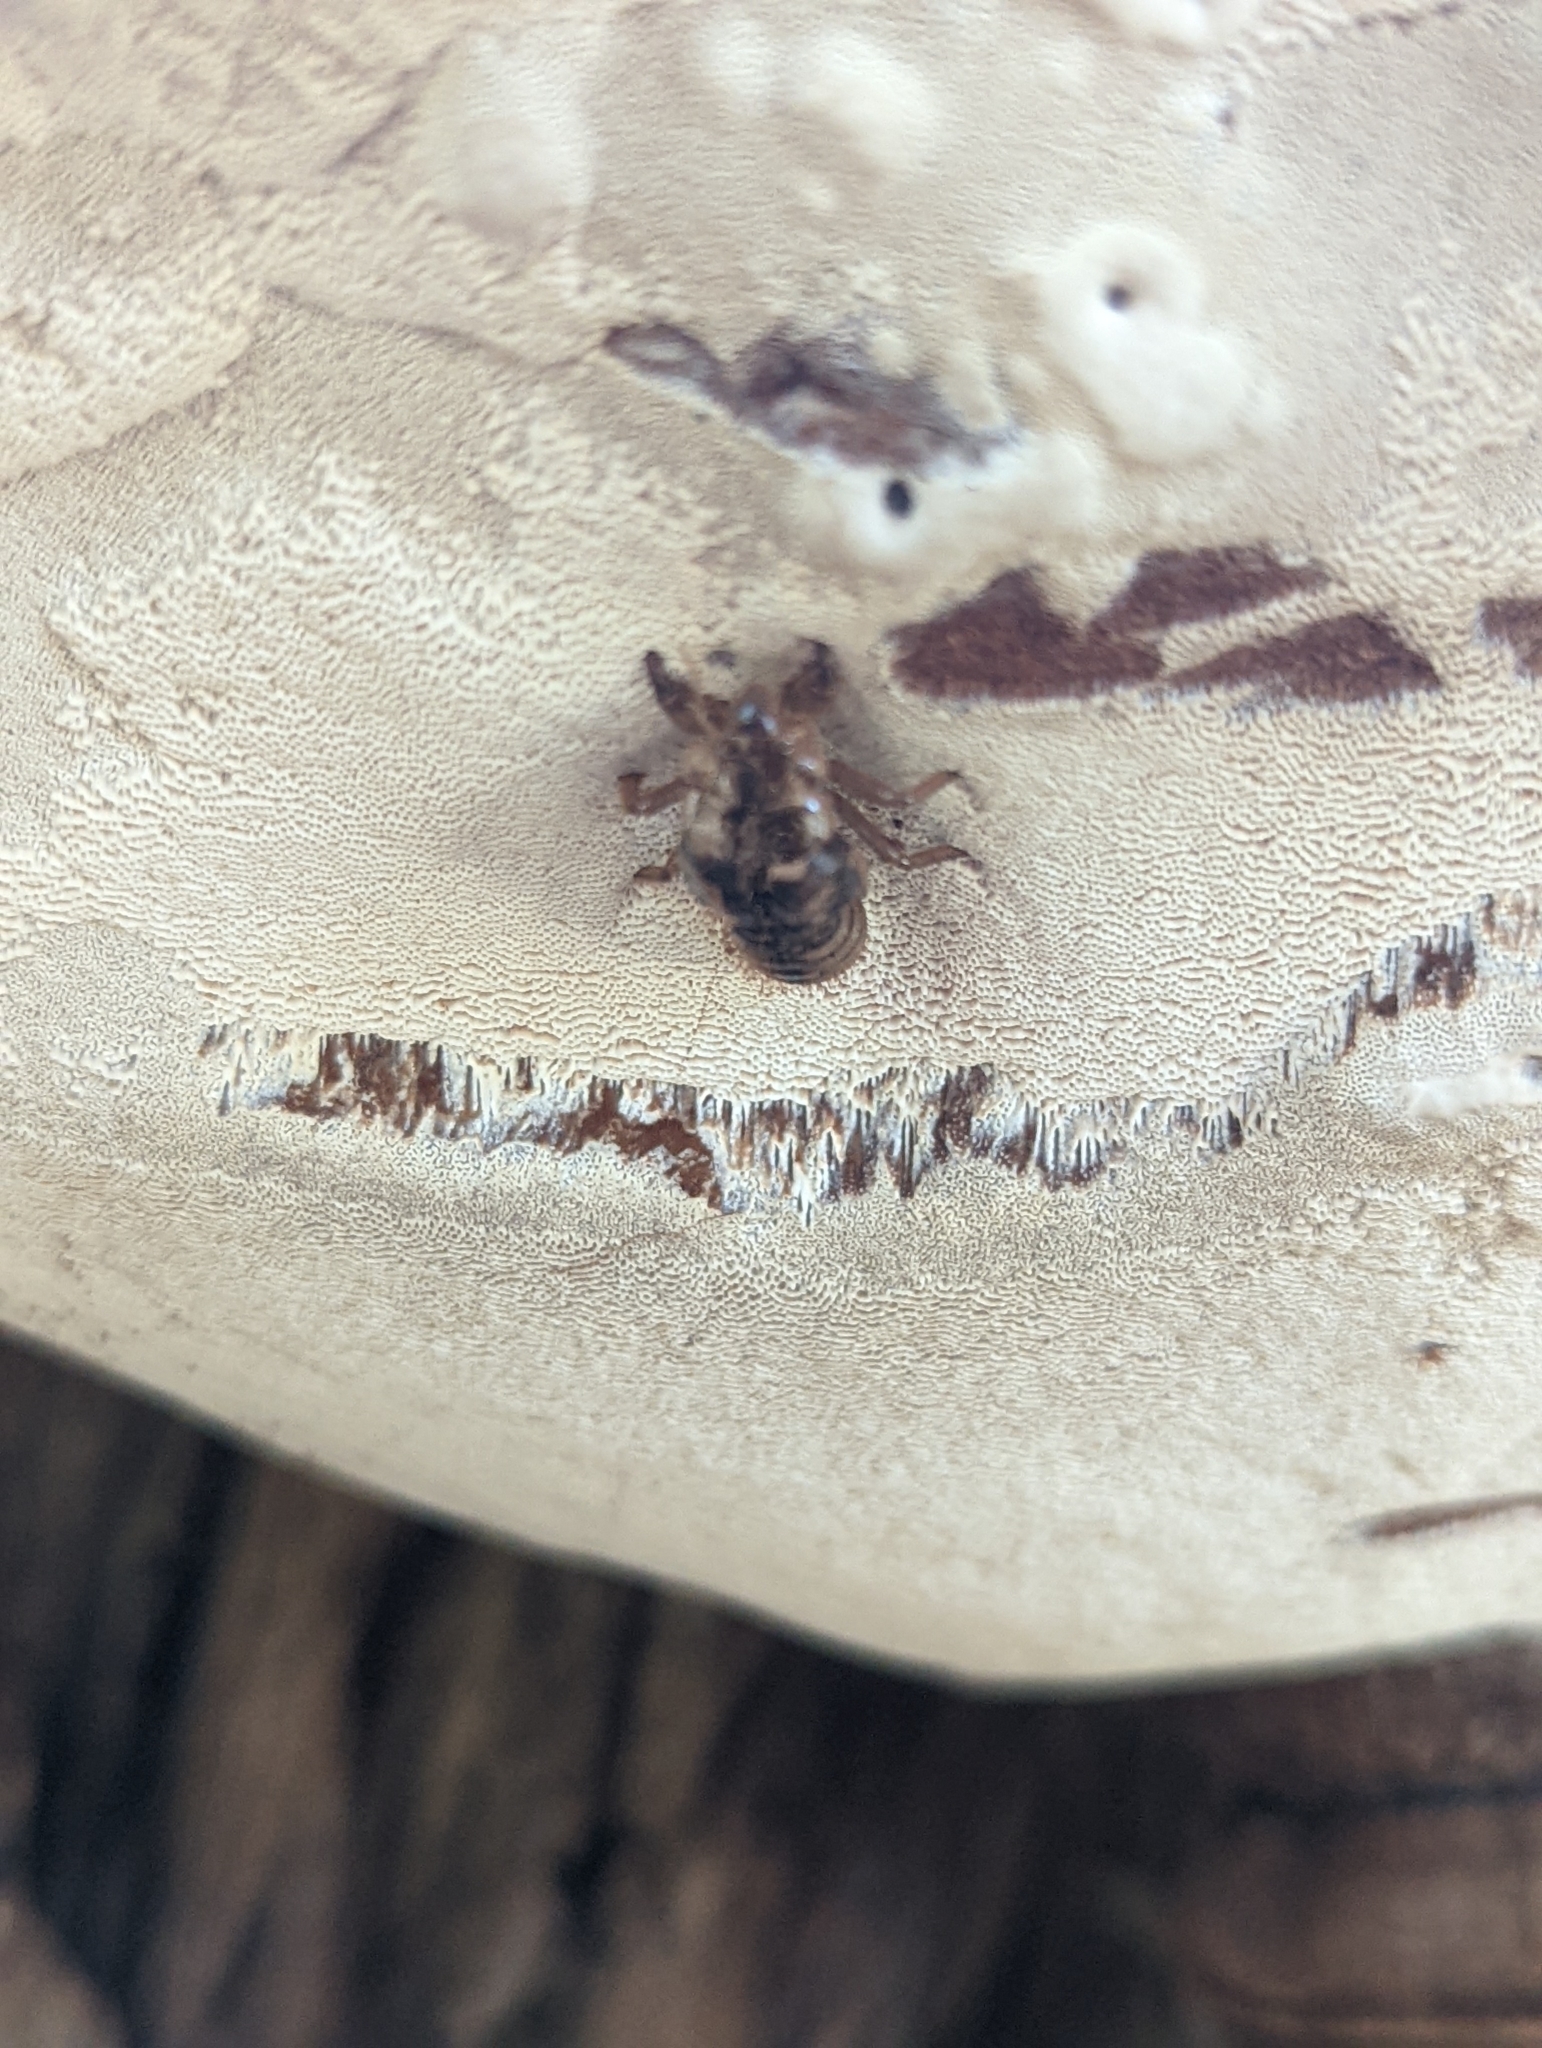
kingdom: Animalia
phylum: Arthropoda
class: Insecta
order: Hemiptera
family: Cicadidae
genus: Platypedia
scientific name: Platypedia
